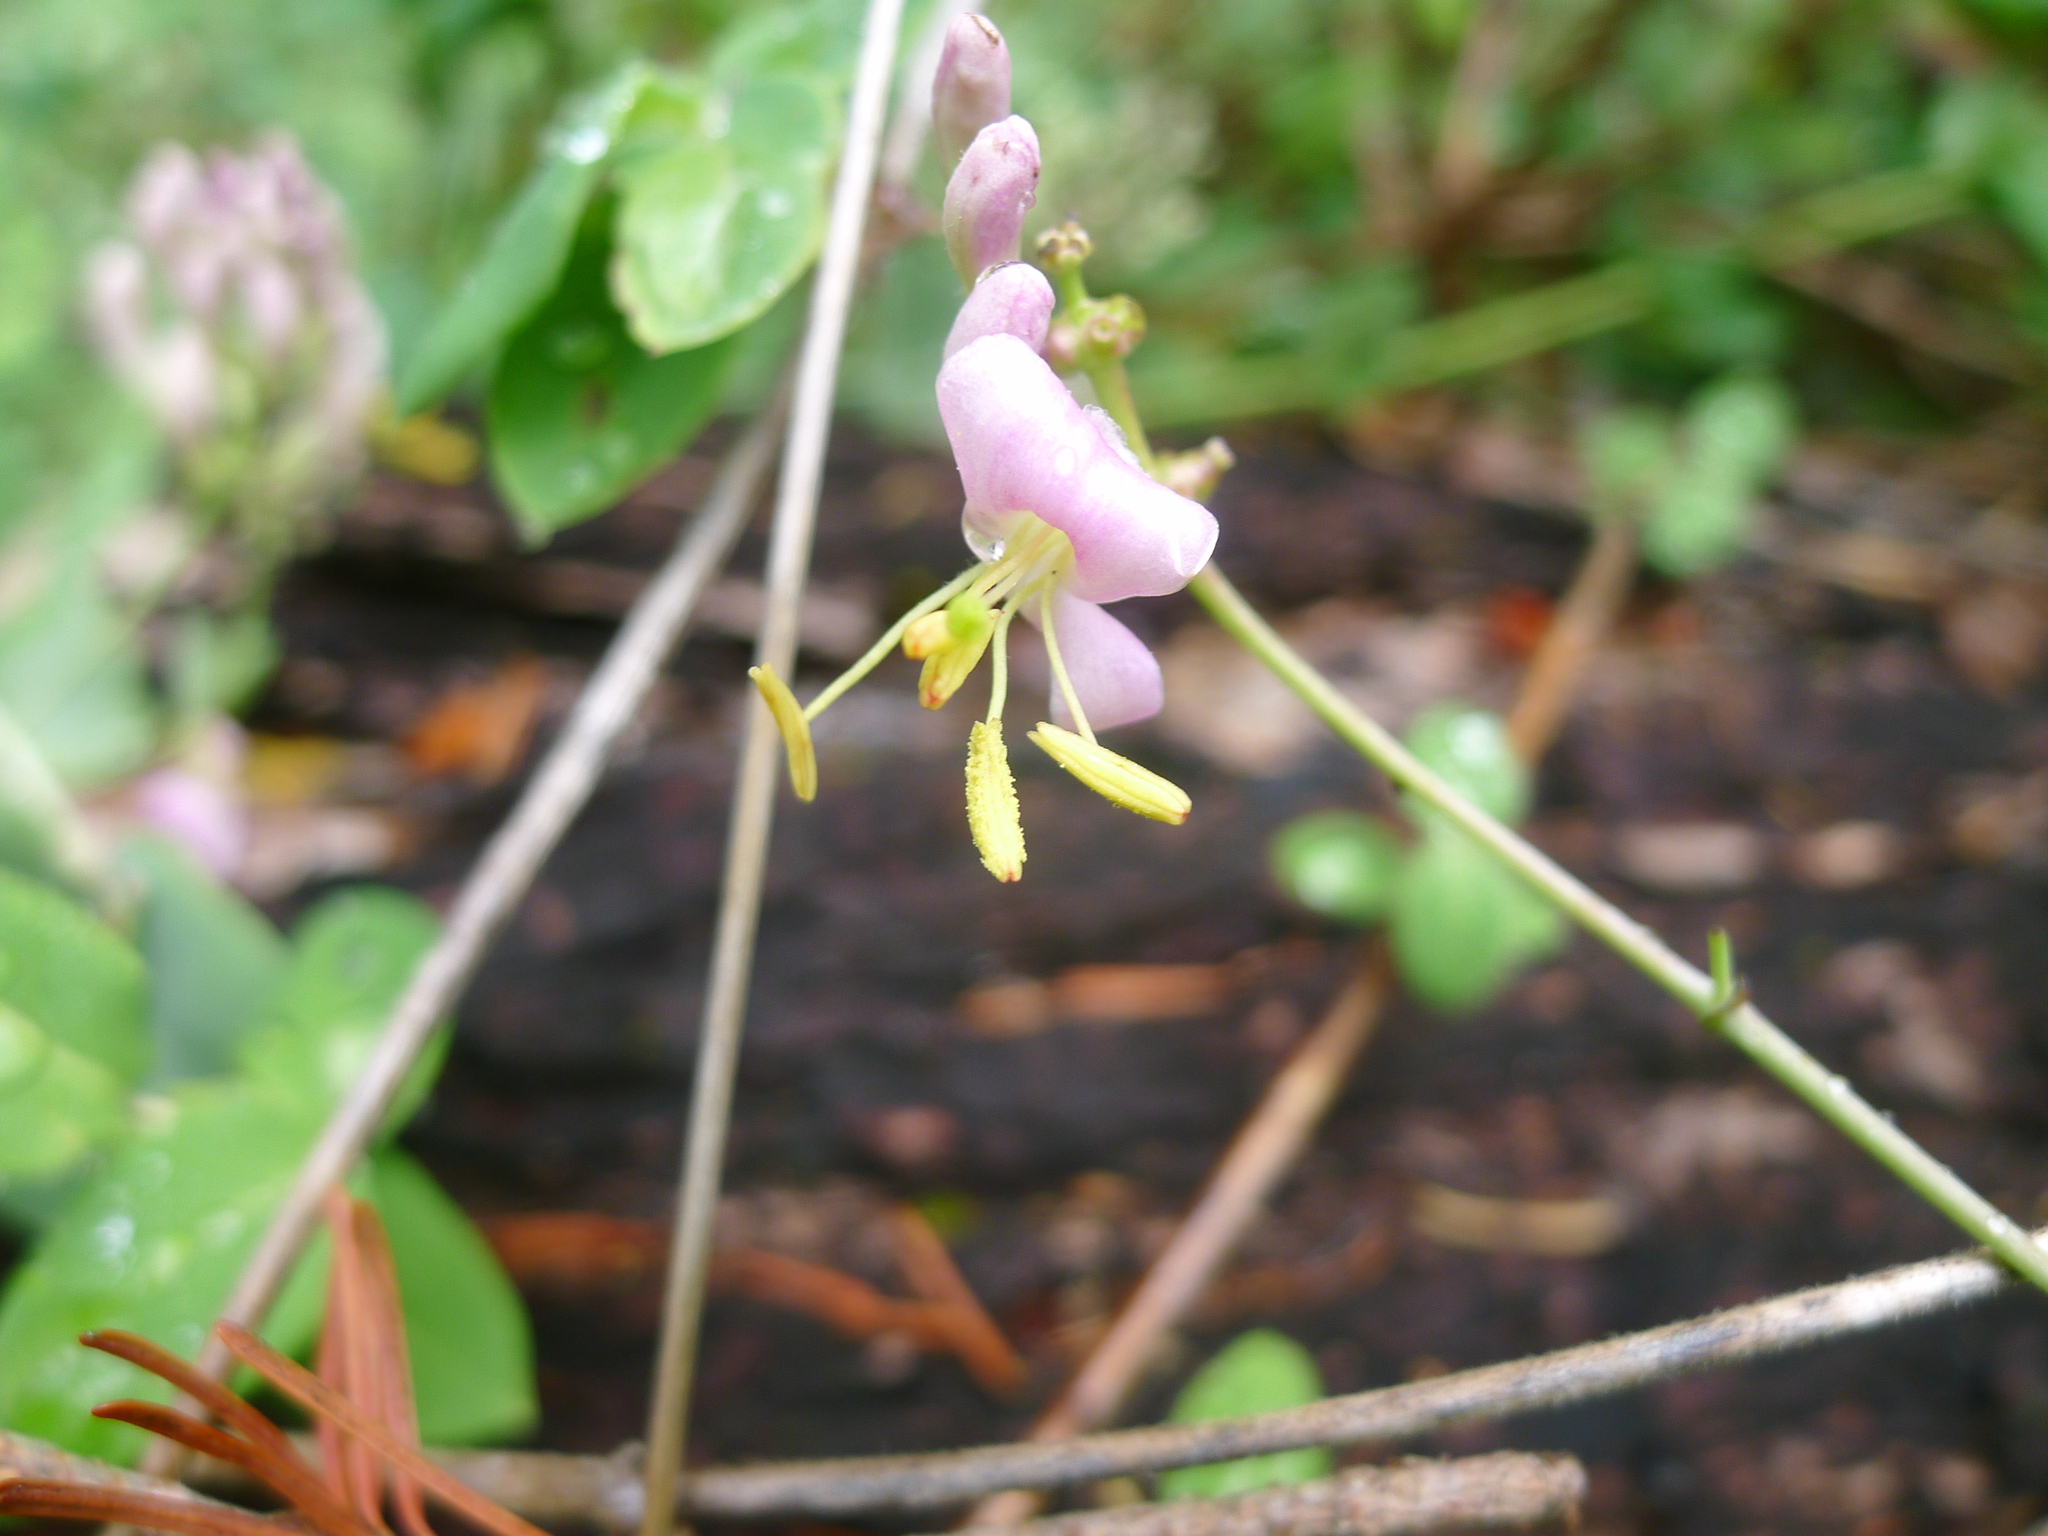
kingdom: Plantae
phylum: Tracheophyta
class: Magnoliopsida
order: Dipsacales
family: Caprifoliaceae
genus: Lonicera
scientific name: Lonicera hispidula
